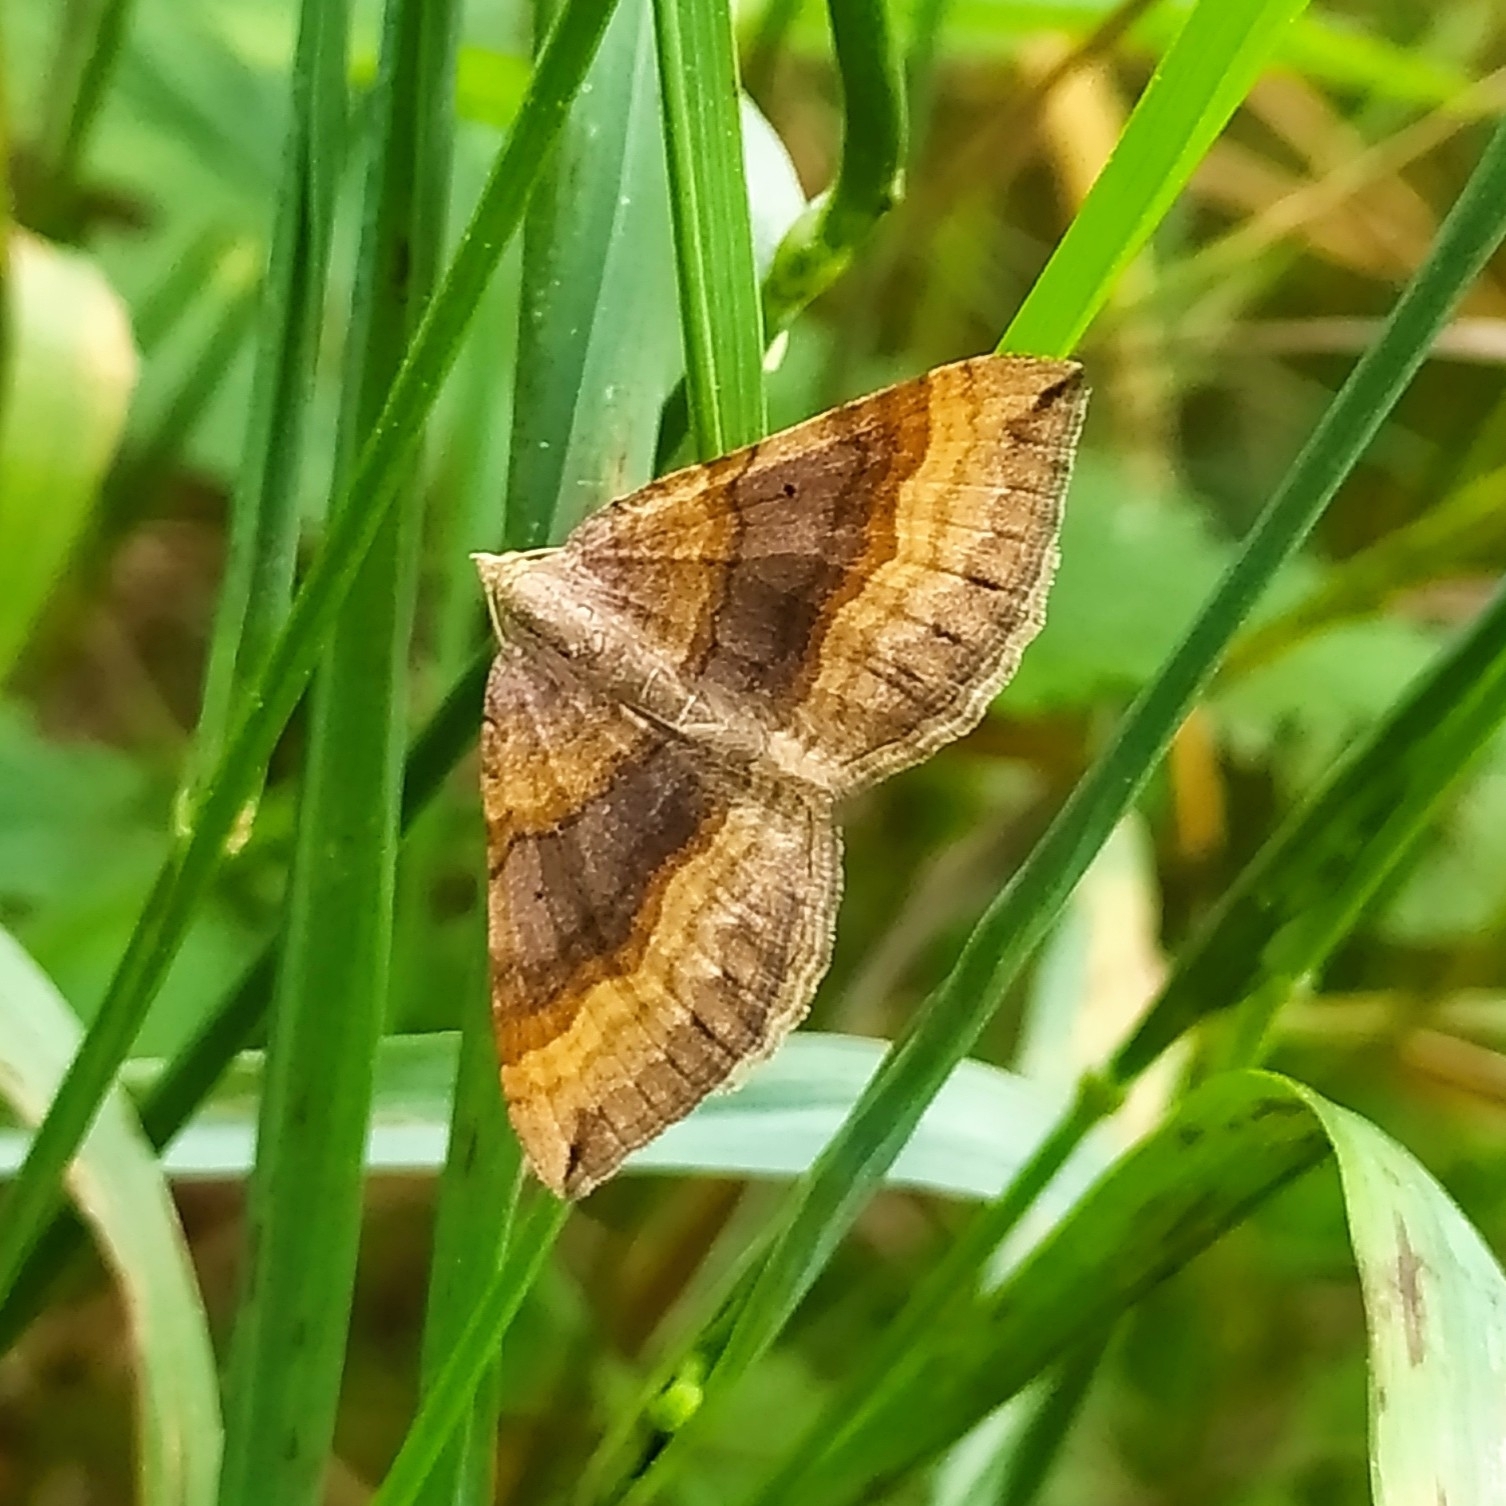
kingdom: Animalia
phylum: Arthropoda
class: Insecta
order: Lepidoptera
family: Geometridae
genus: Scotopteryx
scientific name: Scotopteryx chenopodiata
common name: Shaded broad-bar
